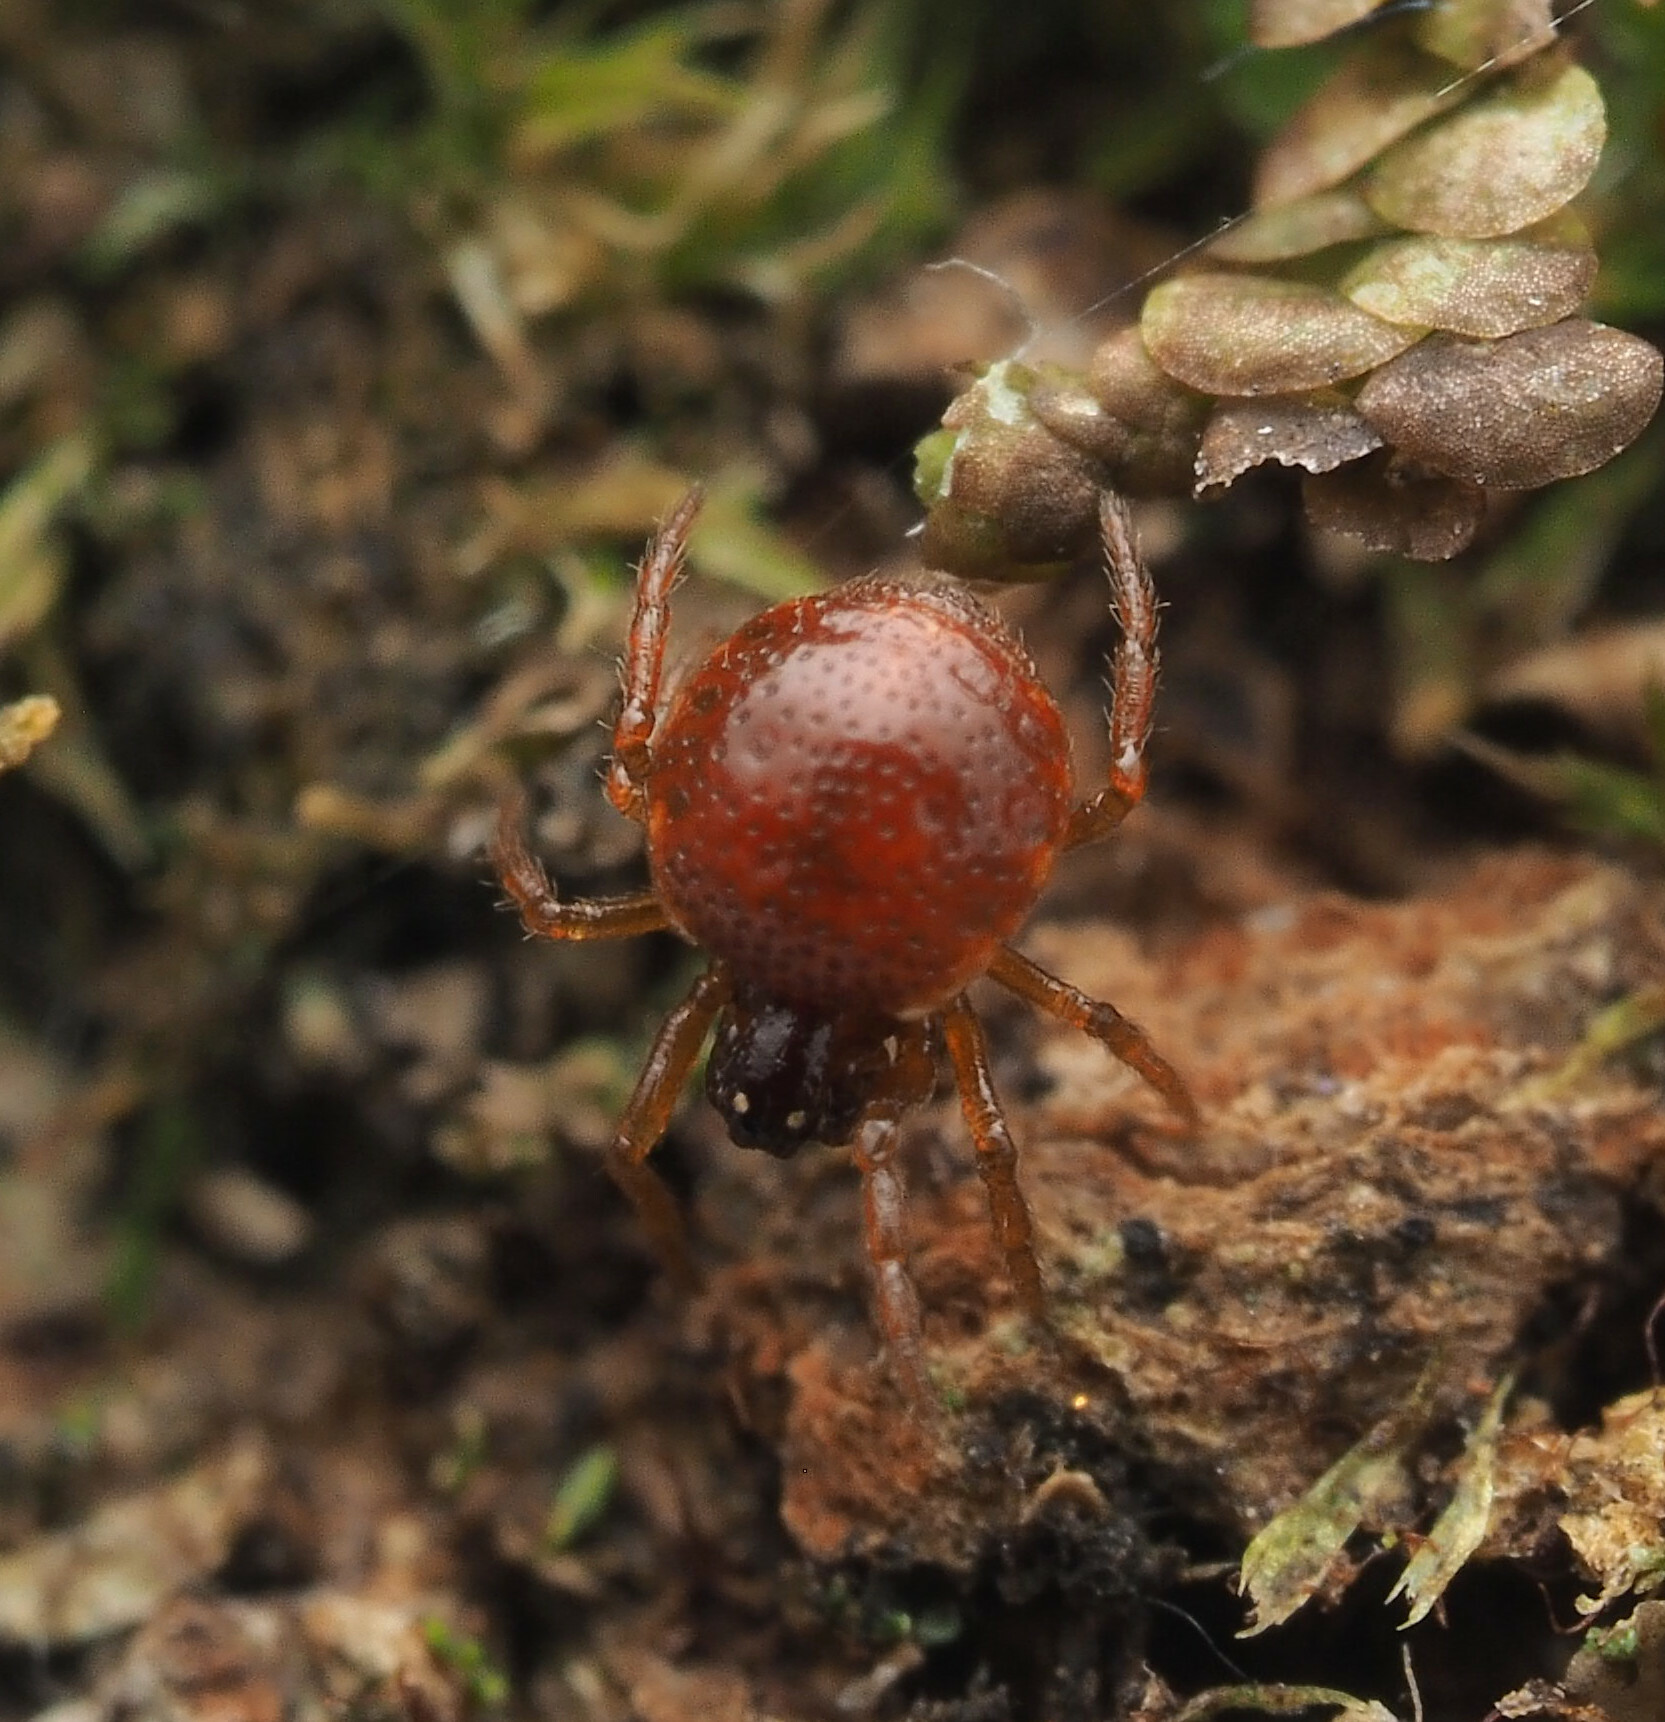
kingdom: Animalia
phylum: Arthropoda
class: Arachnida
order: Araneae
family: Theridiidae
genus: Phoroncidia
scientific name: Phoroncidia
